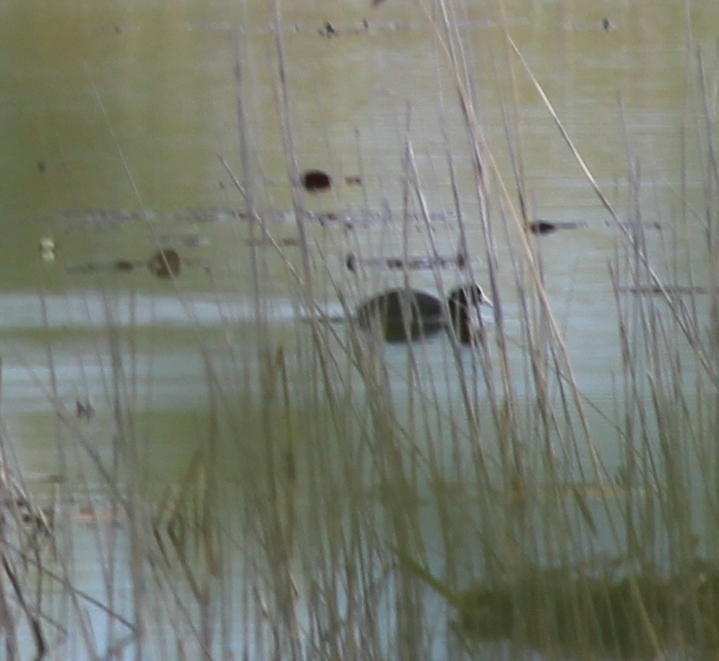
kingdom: Animalia
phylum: Chordata
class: Aves
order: Gruiformes
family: Rallidae
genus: Fulica
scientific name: Fulica atra
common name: Eurasian coot
